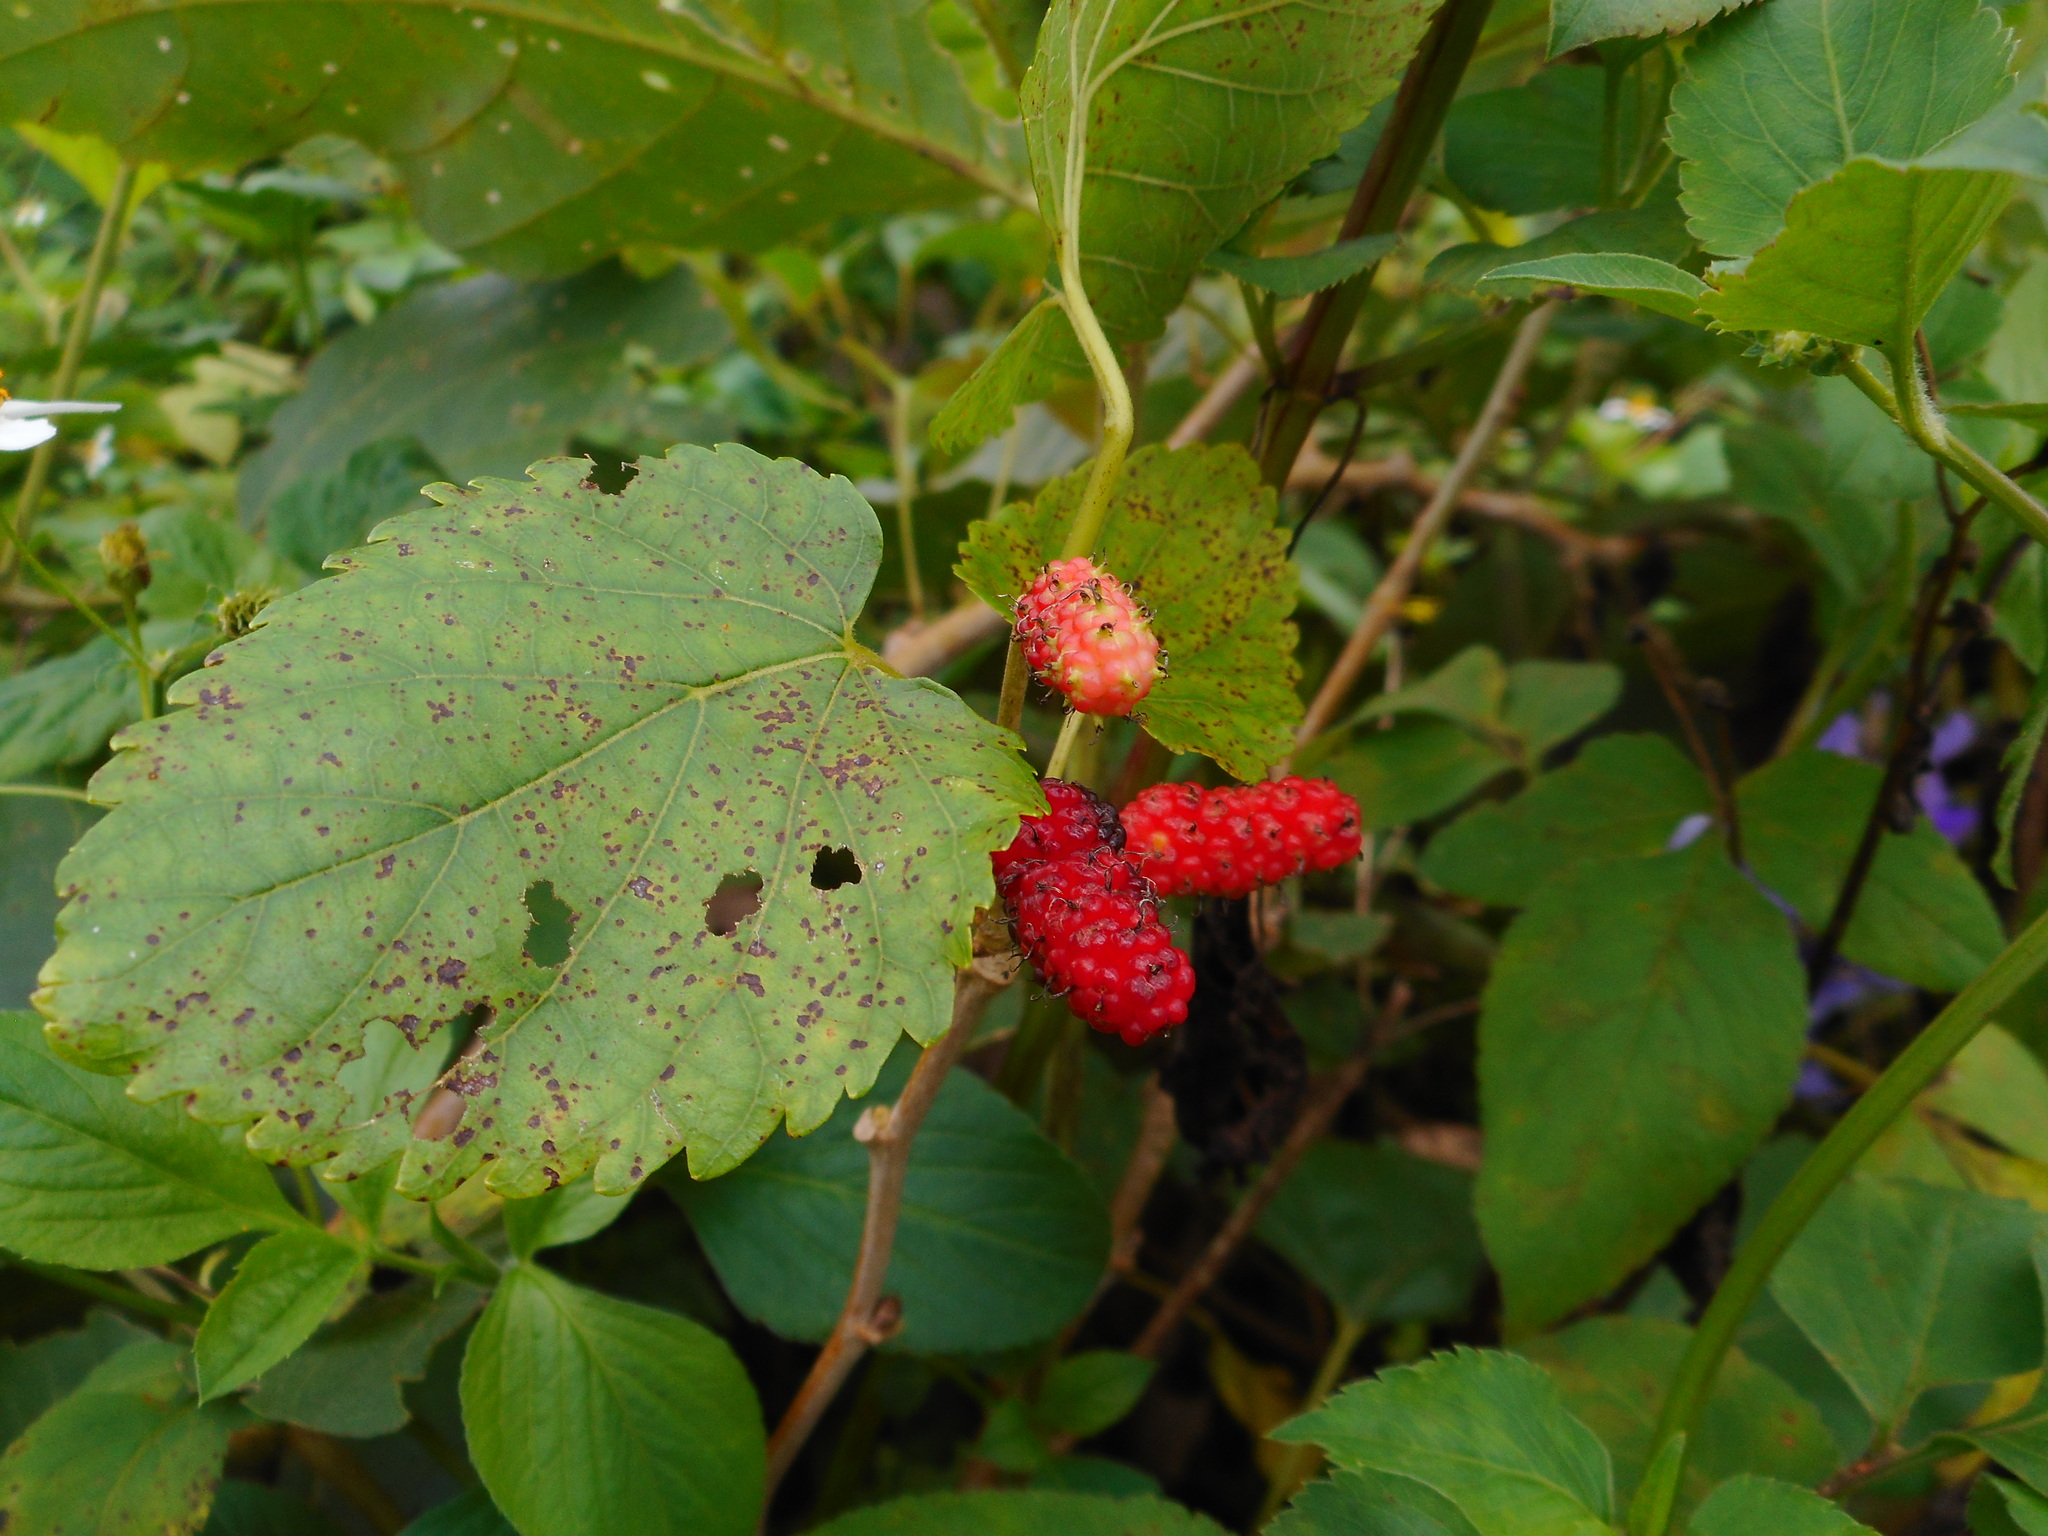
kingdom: Plantae
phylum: Tracheophyta
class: Magnoliopsida
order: Rosales
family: Moraceae
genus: Morus
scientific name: Morus indica
